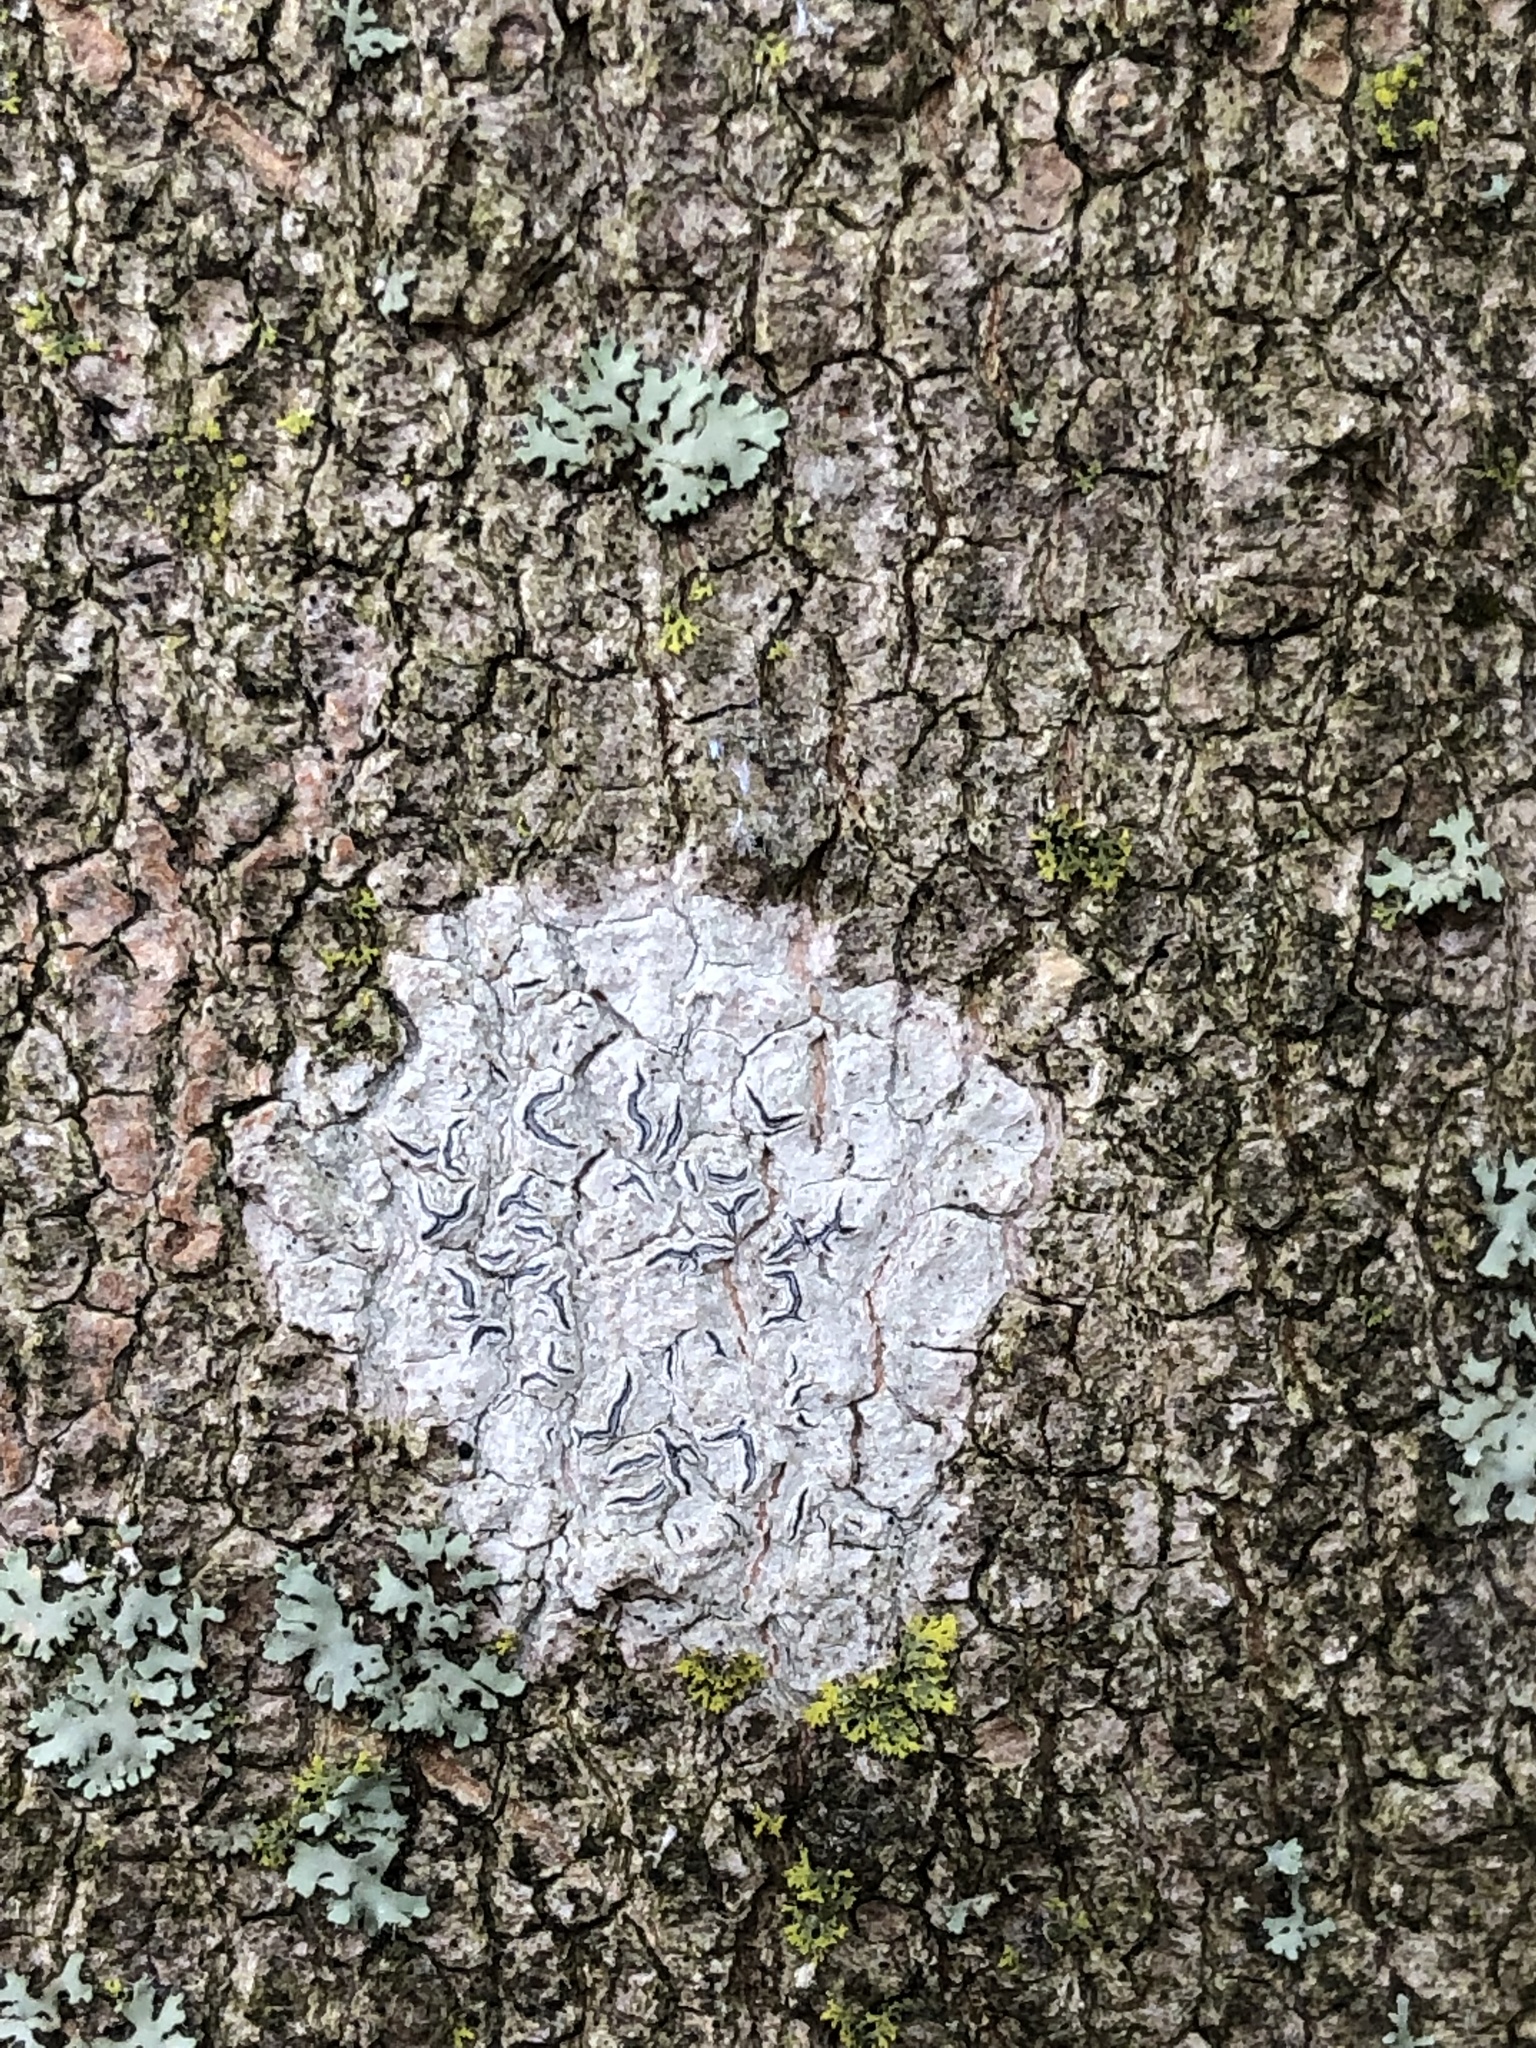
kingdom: Fungi
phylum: Ascomycota
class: Lecanoromycetes
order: Ostropales
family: Graphidaceae
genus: Graphis
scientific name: Graphis scripta
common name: Script lichen
